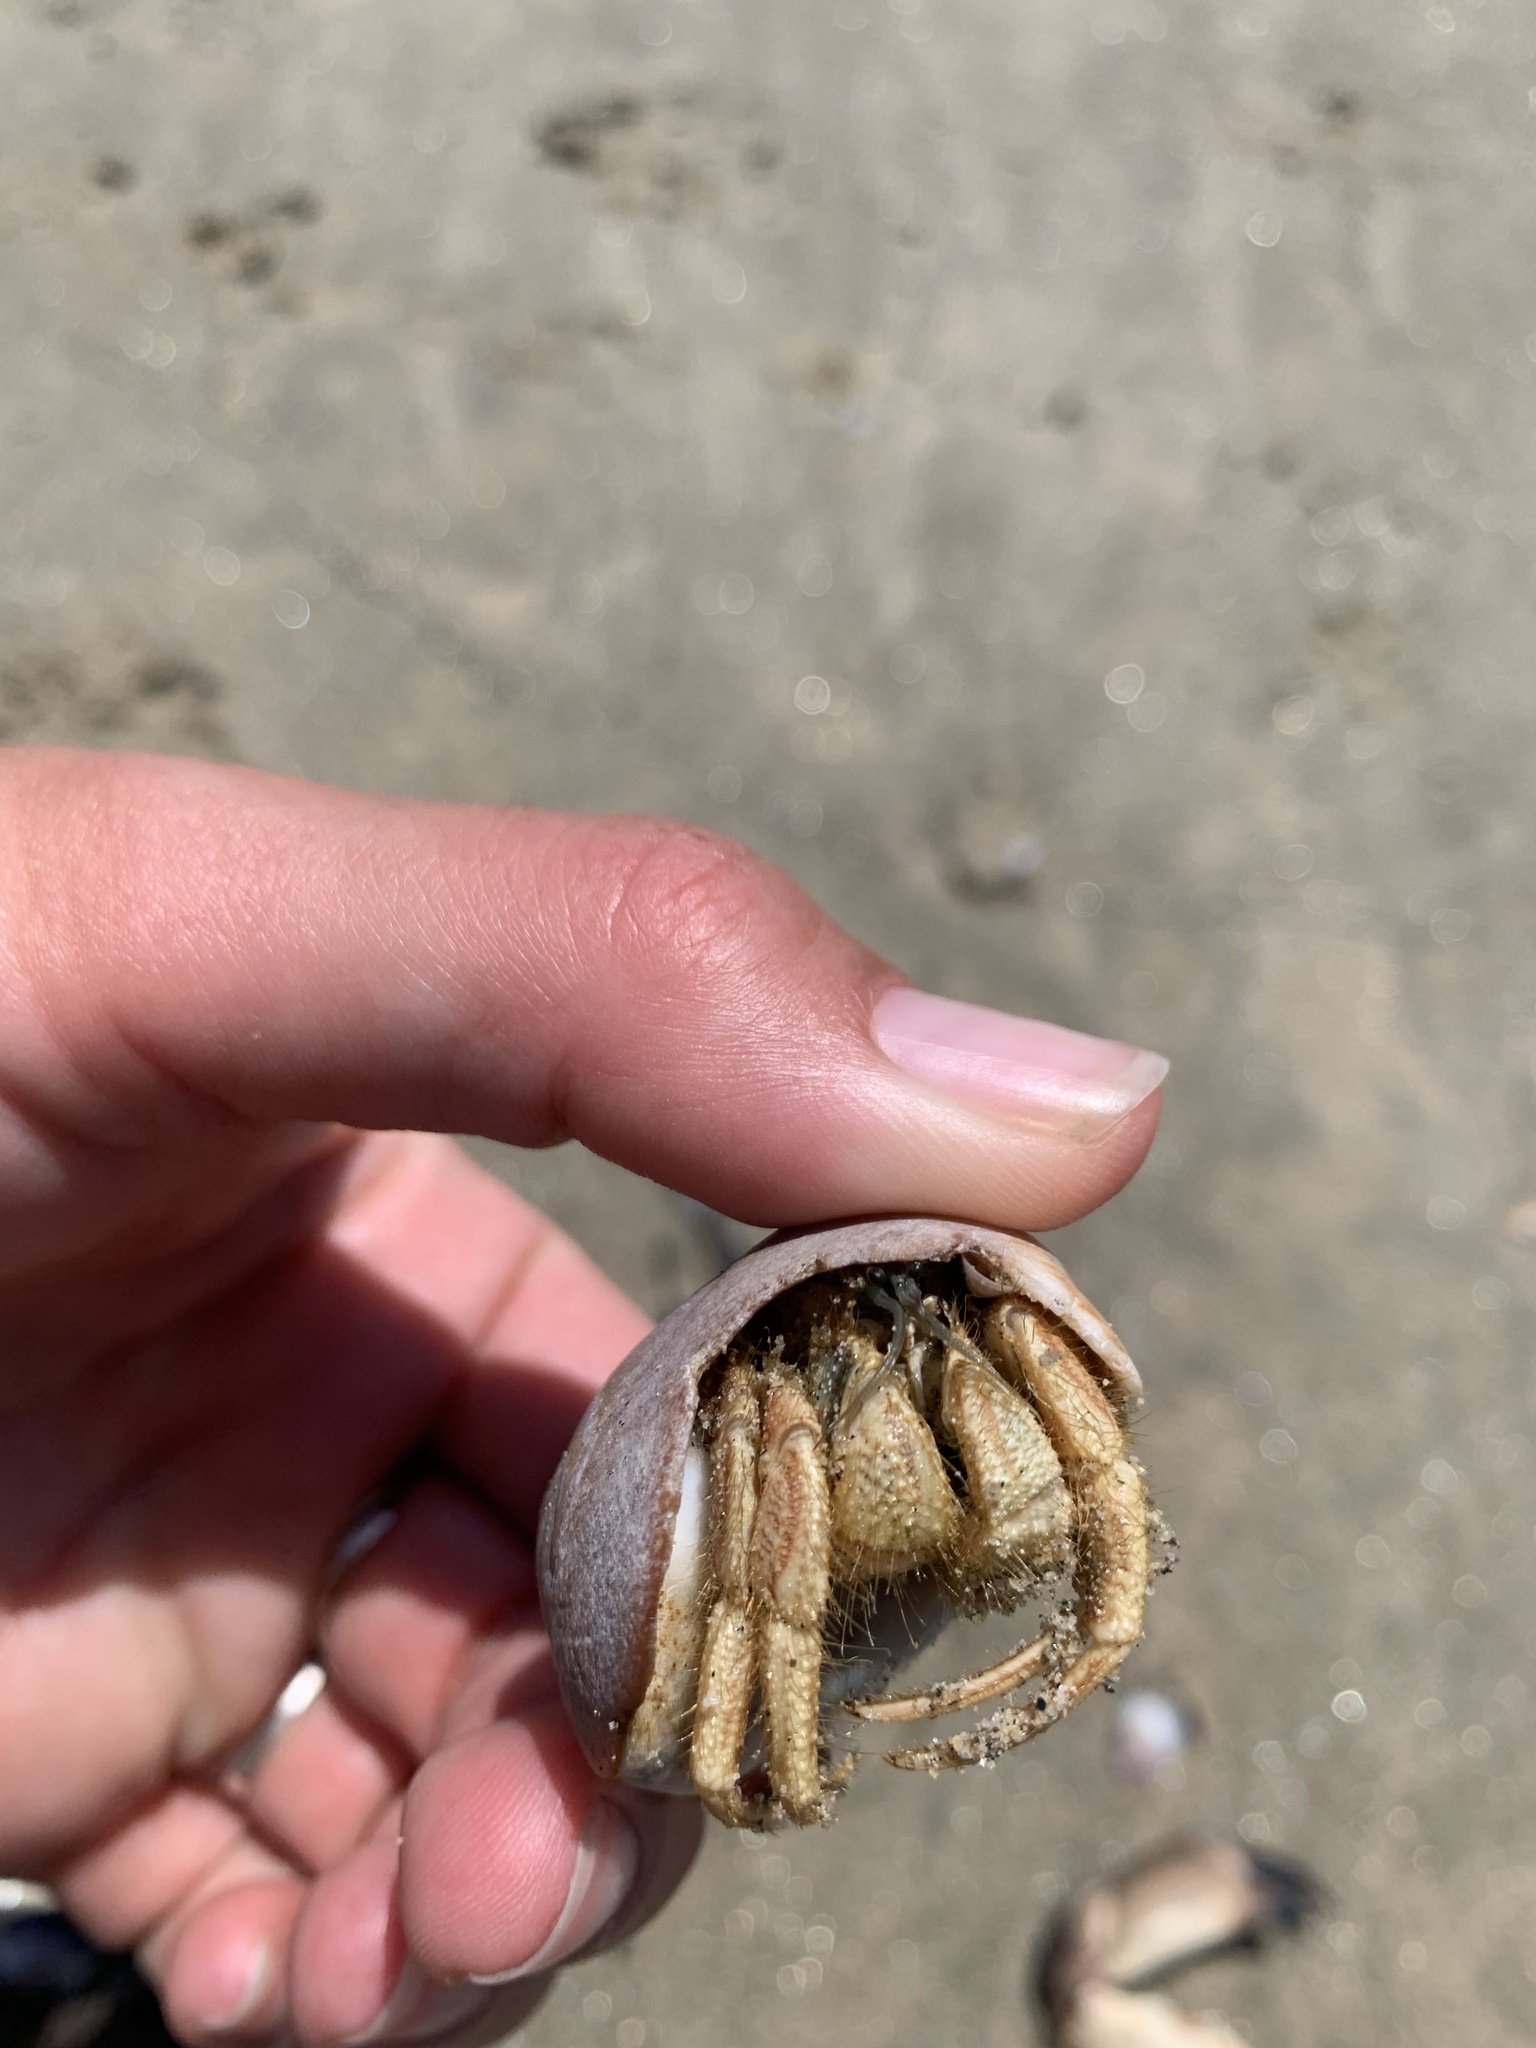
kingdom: Animalia
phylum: Arthropoda
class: Malacostraca
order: Decapoda
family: Diogenidae
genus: Isocheles
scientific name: Isocheles pilosus
